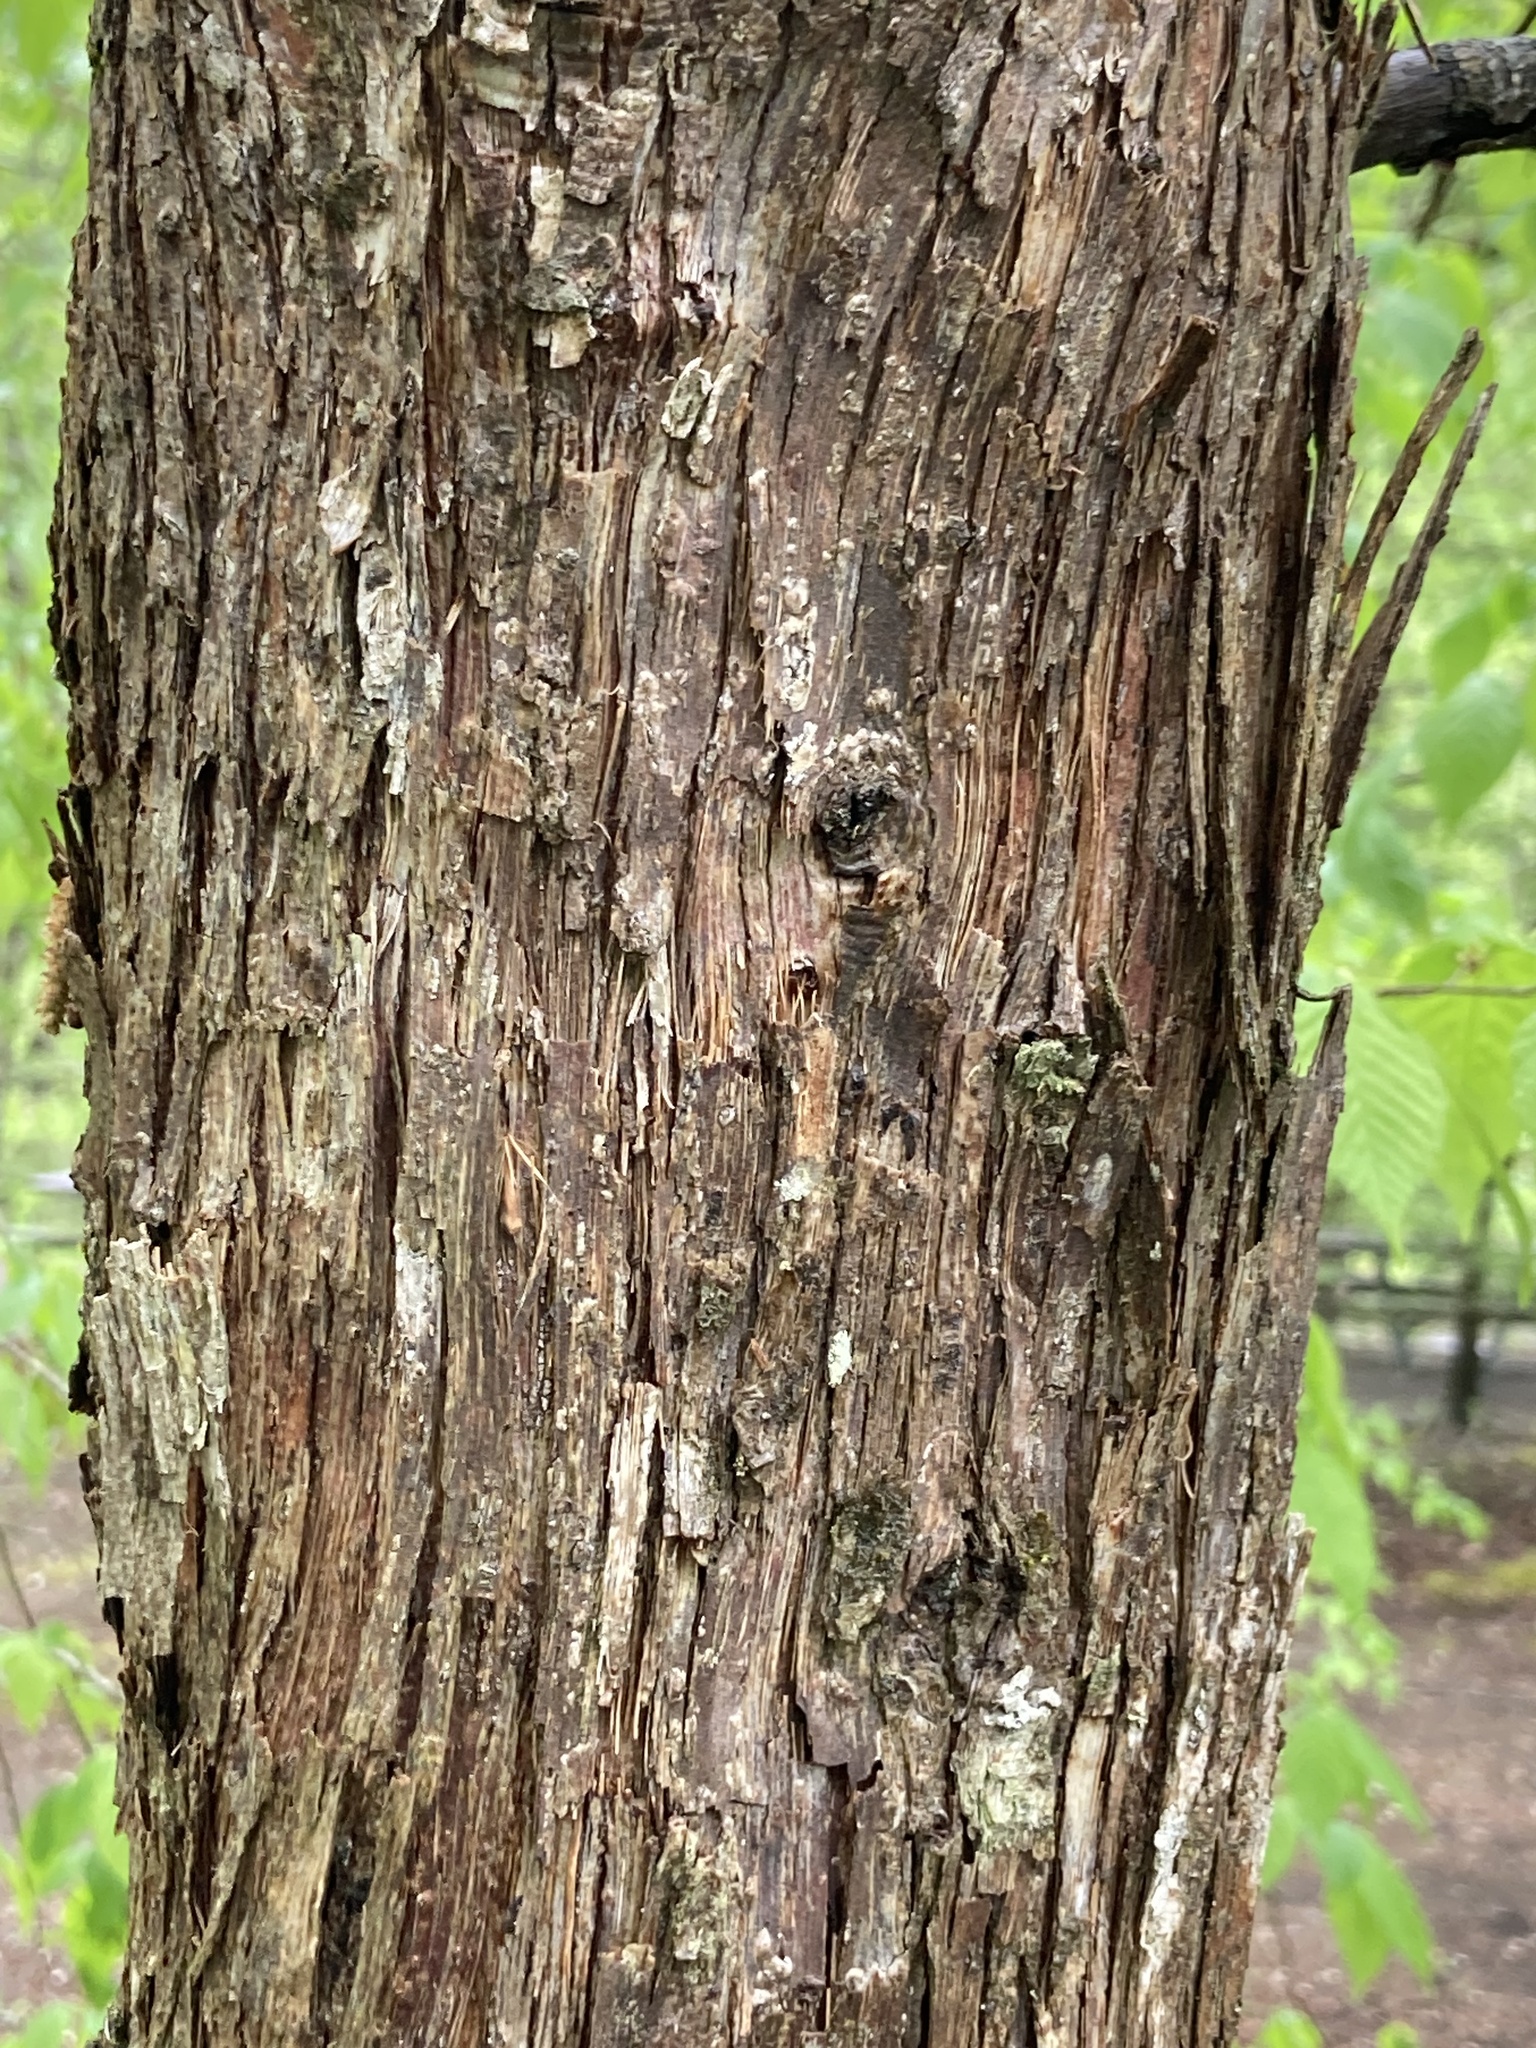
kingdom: Plantae
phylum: Tracheophyta
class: Magnoliopsida
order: Fagales
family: Betulaceae
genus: Ostrya
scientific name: Ostrya virginiana
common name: Ironwood
